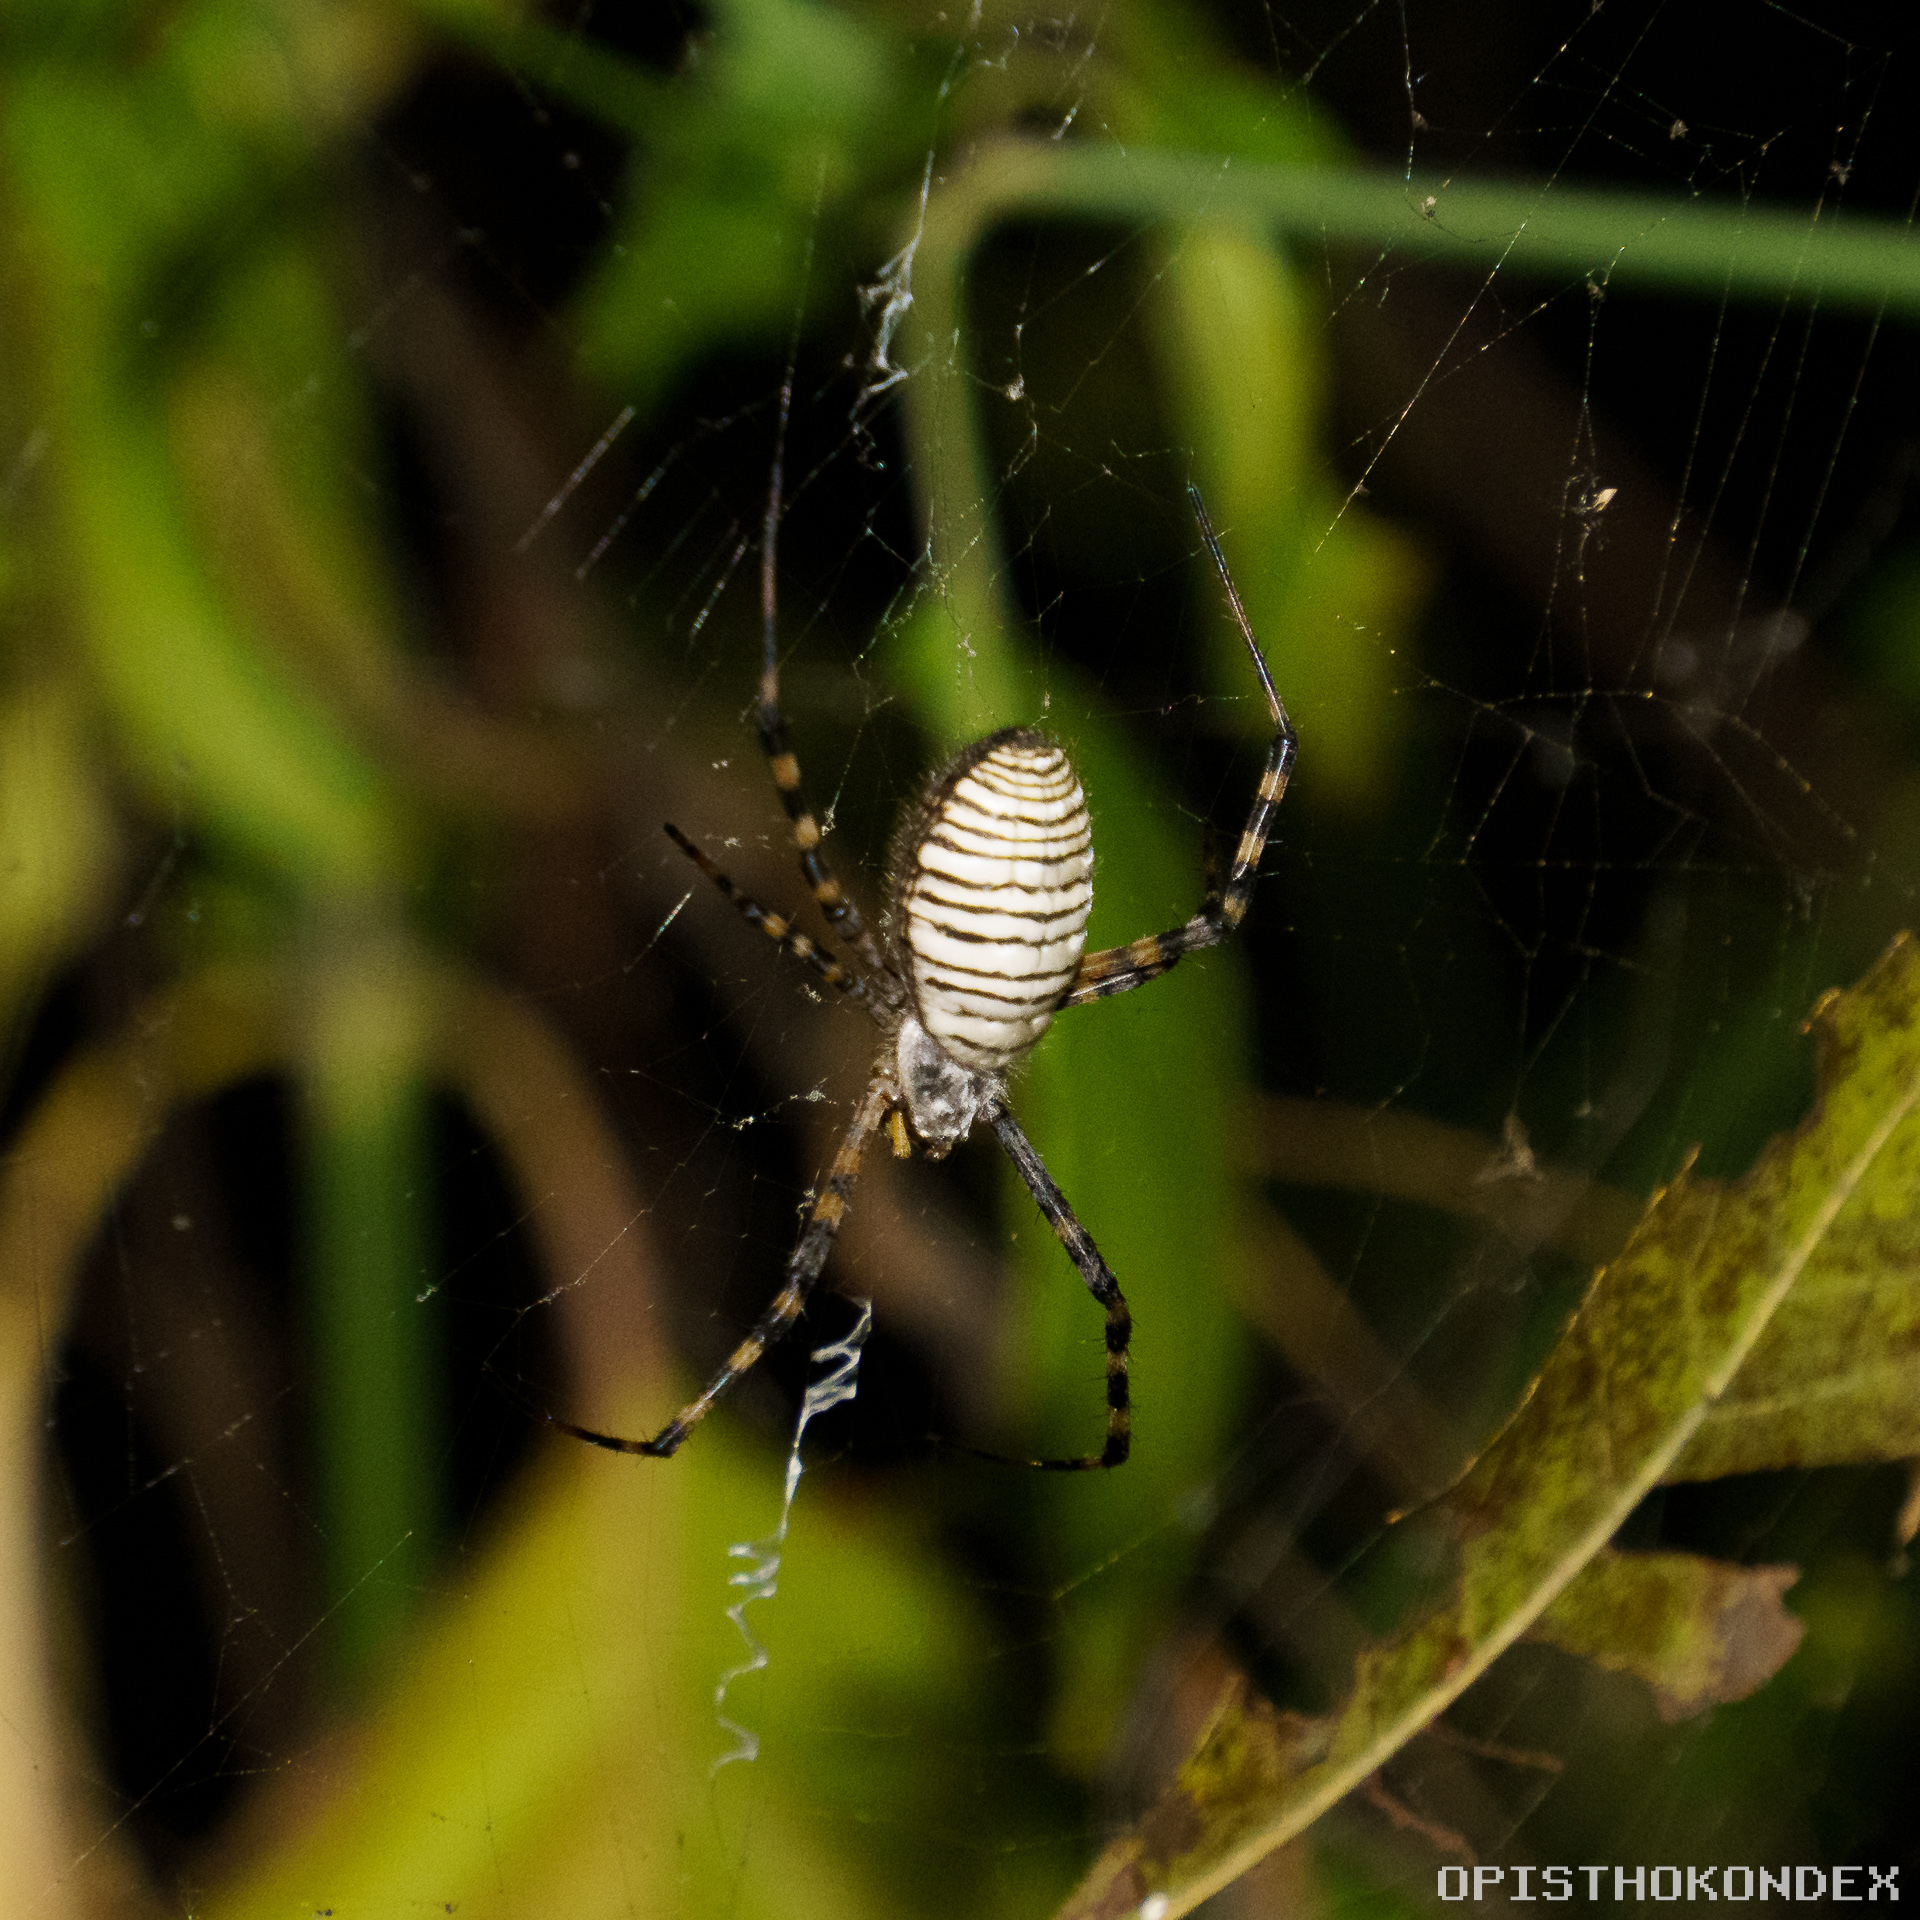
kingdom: Animalia
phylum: Arthropoda
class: Arachnida
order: Araneae
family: Araneidae
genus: Argiope
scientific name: Argiope trifasciata
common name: Banded garden spider
